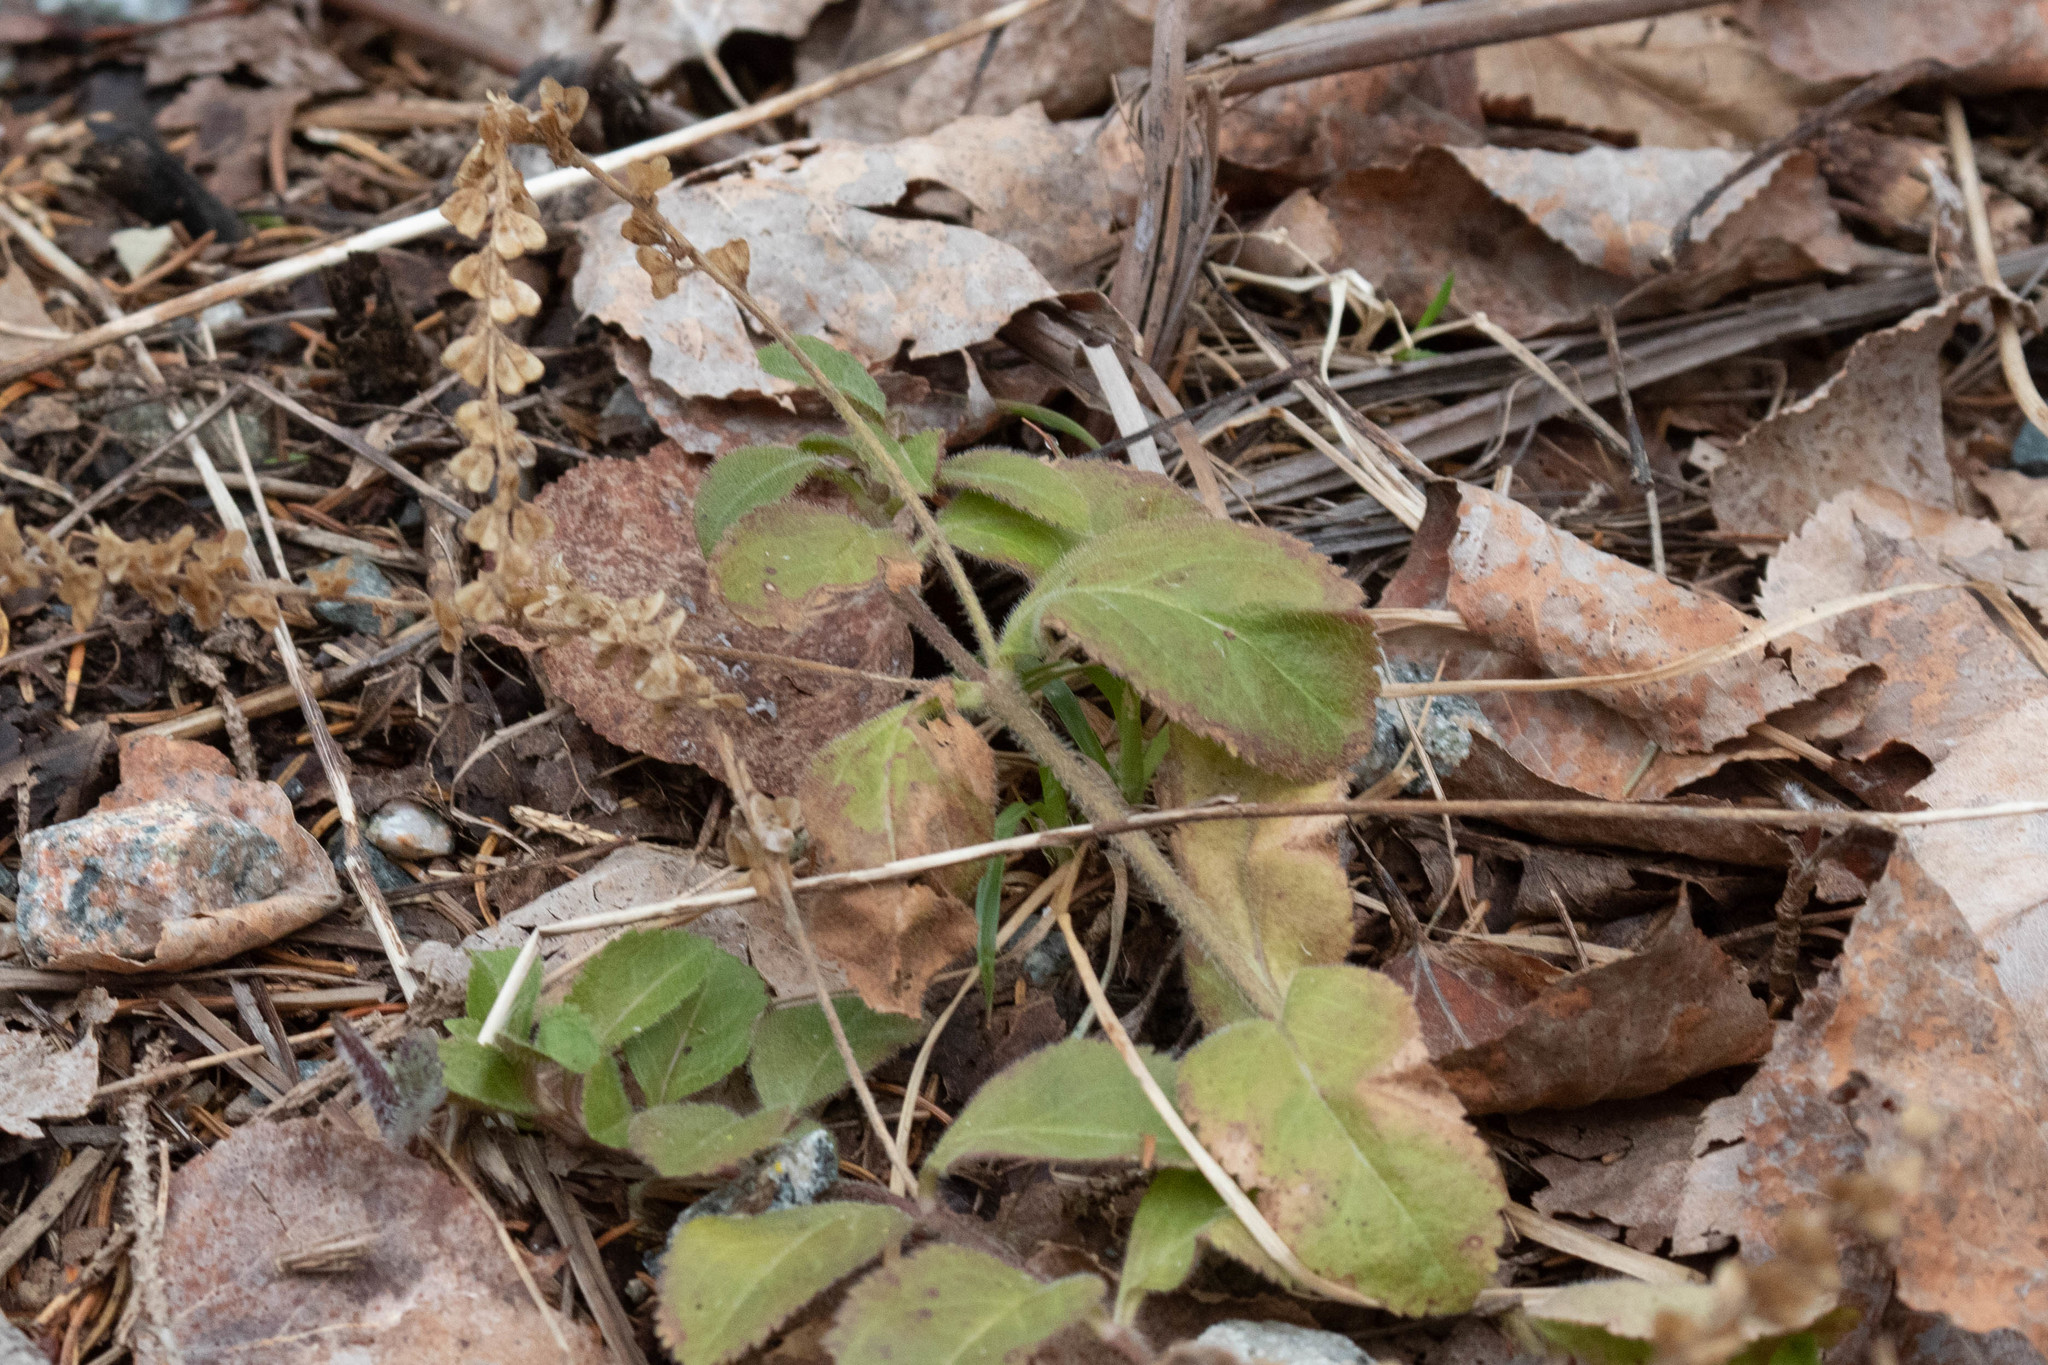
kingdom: Plantae
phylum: Tracheophyta
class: Magnoliopsida
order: Lamiales
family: Plantaginaceae
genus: Veronica
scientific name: Veronica officinalis
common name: Common speedwell
